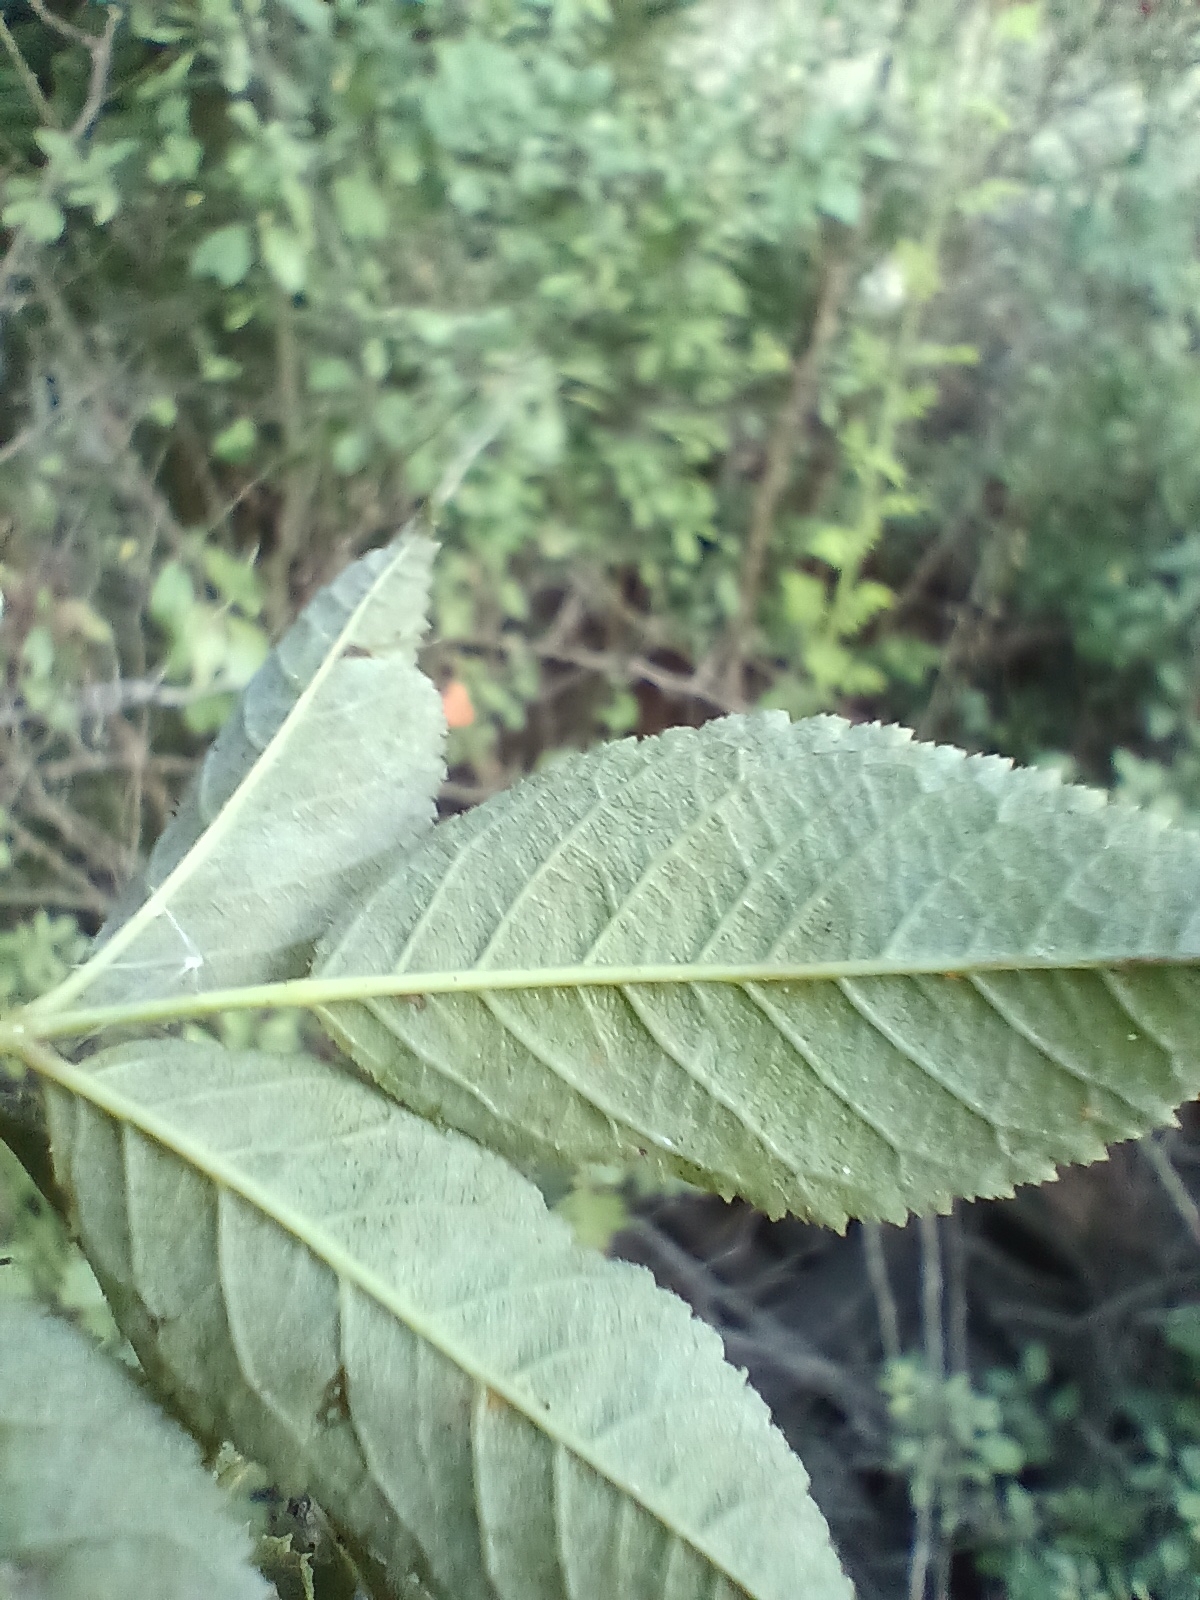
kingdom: Plantae
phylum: Tracheophyta
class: Magnoliopsida
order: Rosales
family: Rosaceae
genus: Rosa
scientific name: Rosa dumalis
